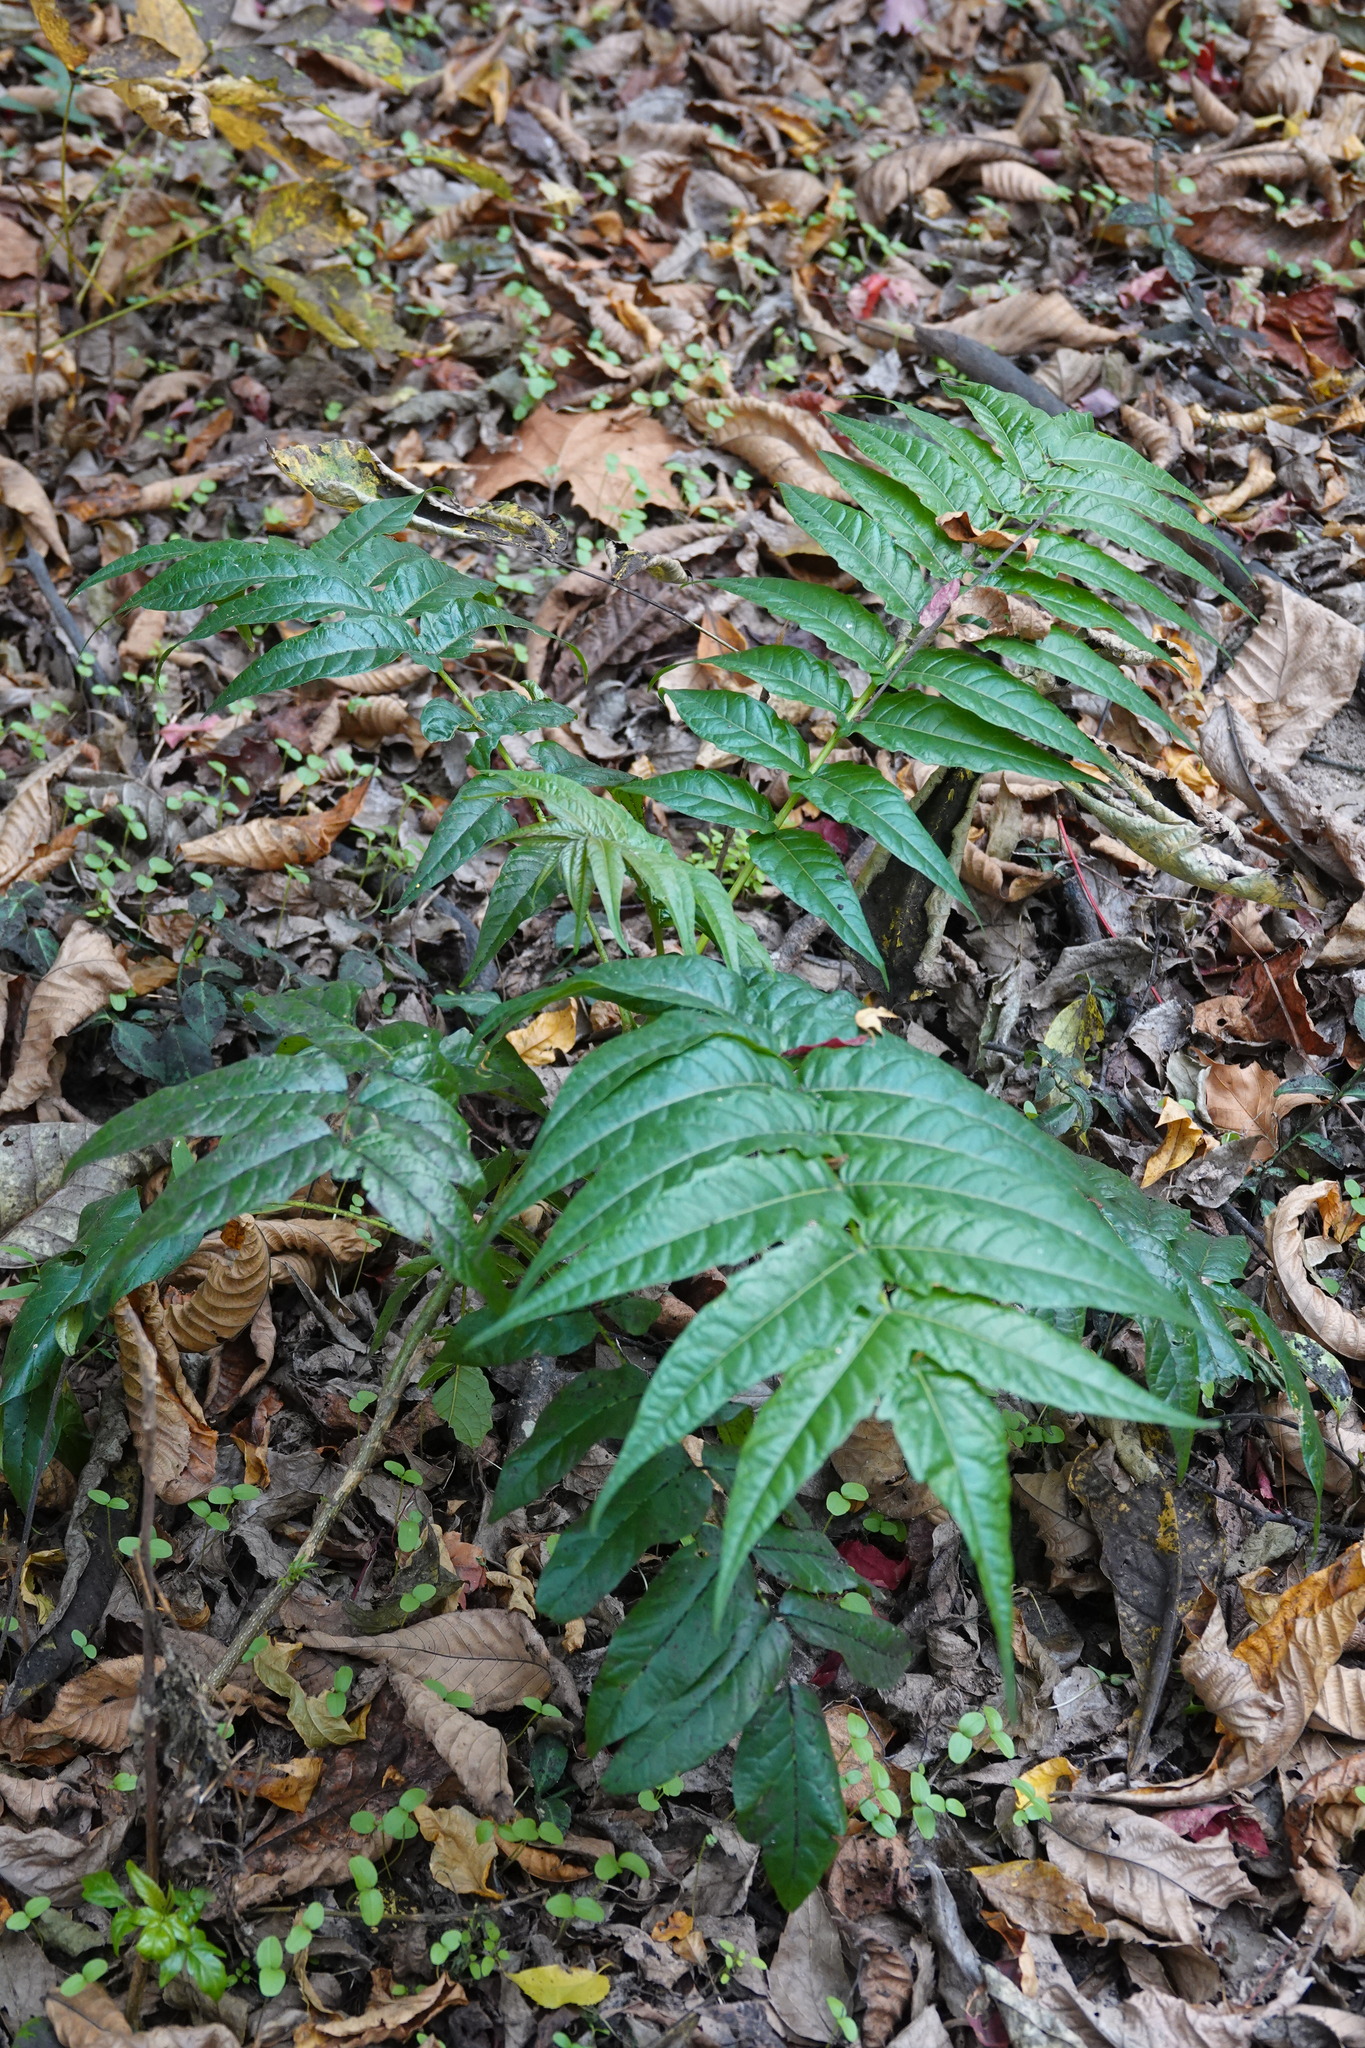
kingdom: Plantae
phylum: Tracheophyta
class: Magnoliopsida
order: Sapindales
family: Simaroubaceae
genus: Ailanthus
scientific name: Ailanthus altissima
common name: Tree-of-heaven
